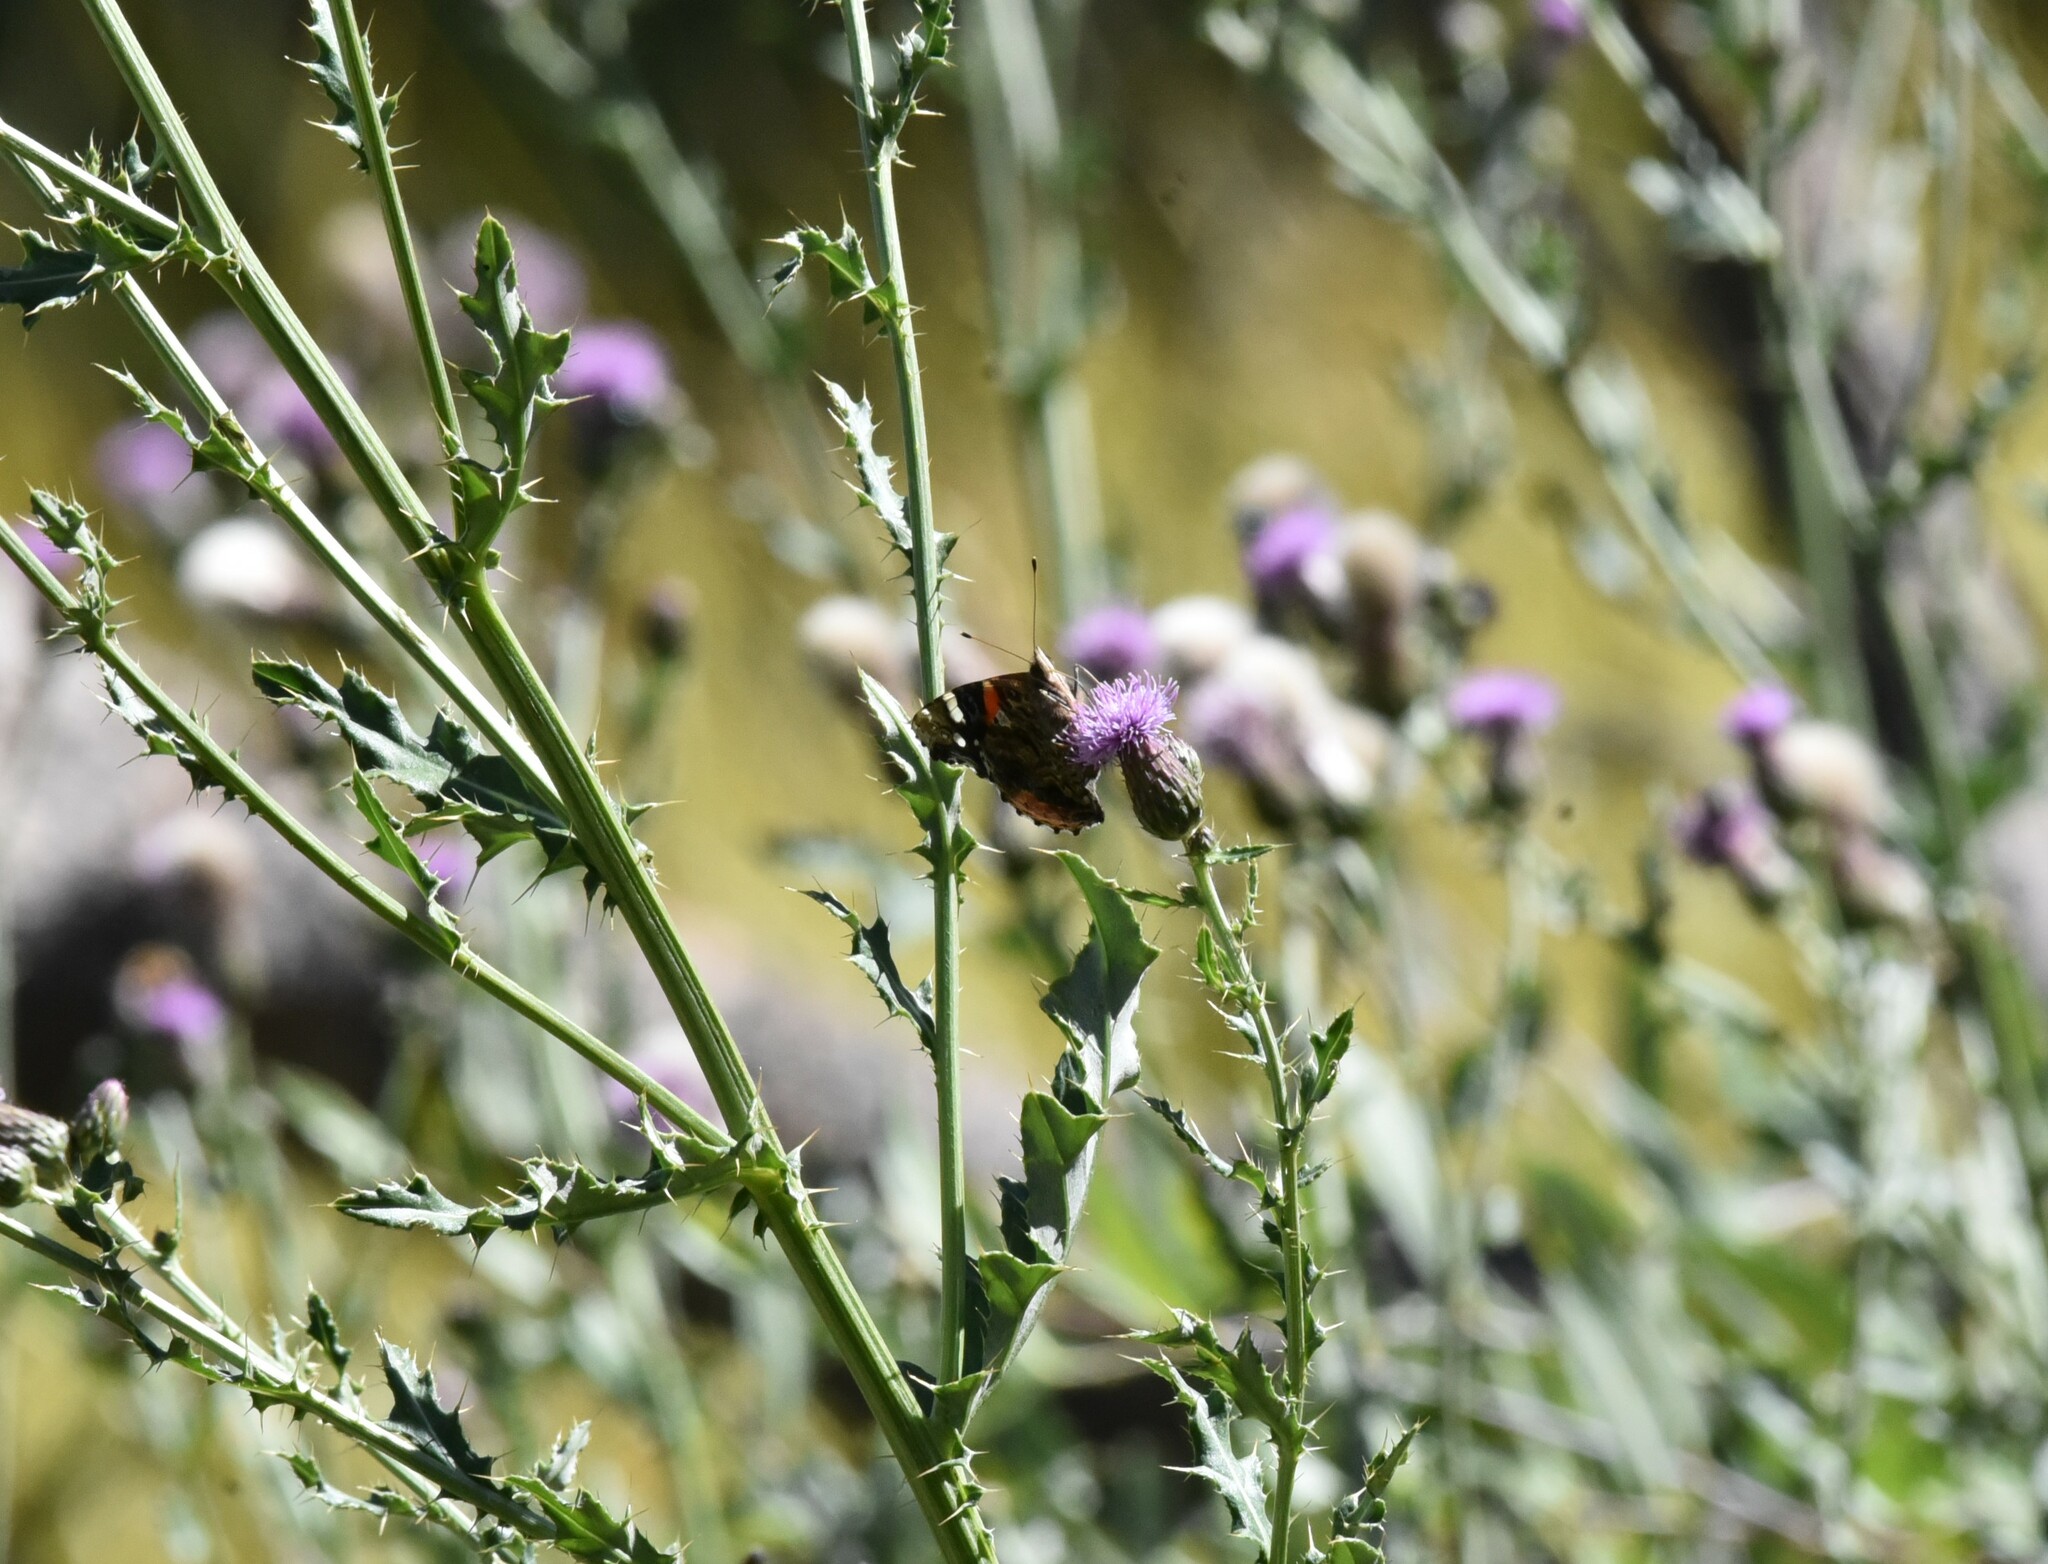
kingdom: Animalia
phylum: Arthropoda
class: Insecta
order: Lepidoptera
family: Nymphalidae
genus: Vanessa
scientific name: Vanessa atalanta
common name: Red admiral
